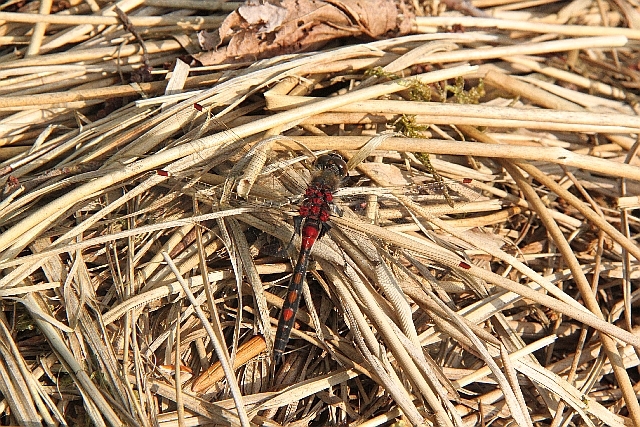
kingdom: Animalia
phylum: Arthropoda
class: Insecta
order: Odonata
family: Libellulidae
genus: Leucorrhinia
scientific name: Leucorrhinia rubicunda
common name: Ruby whiteface
